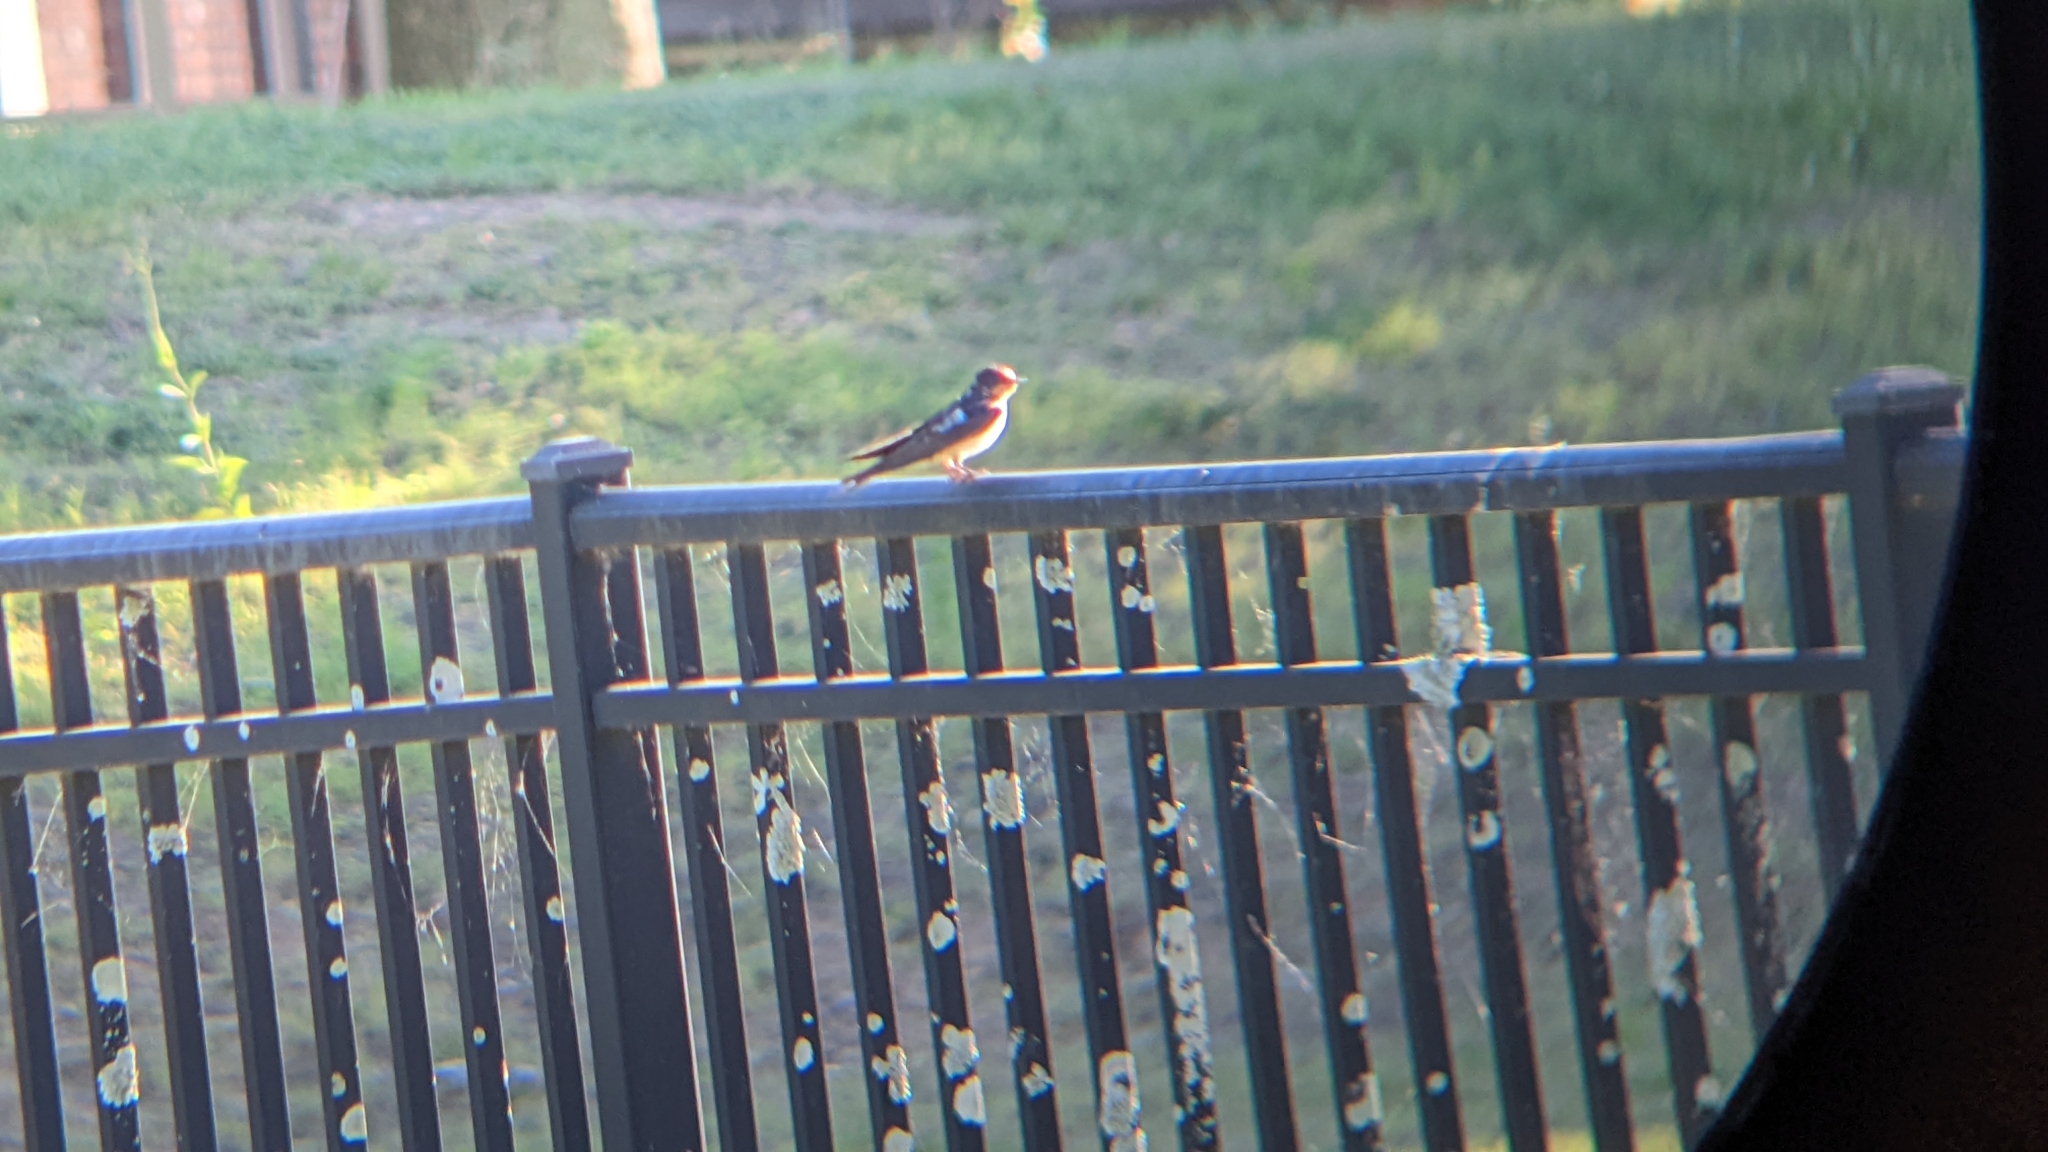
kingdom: Animalia
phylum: Chordata
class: Aves
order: Passeriformes
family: Hirundinidae
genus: Hirundo
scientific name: Hirundo rustica
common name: Barn swallow
